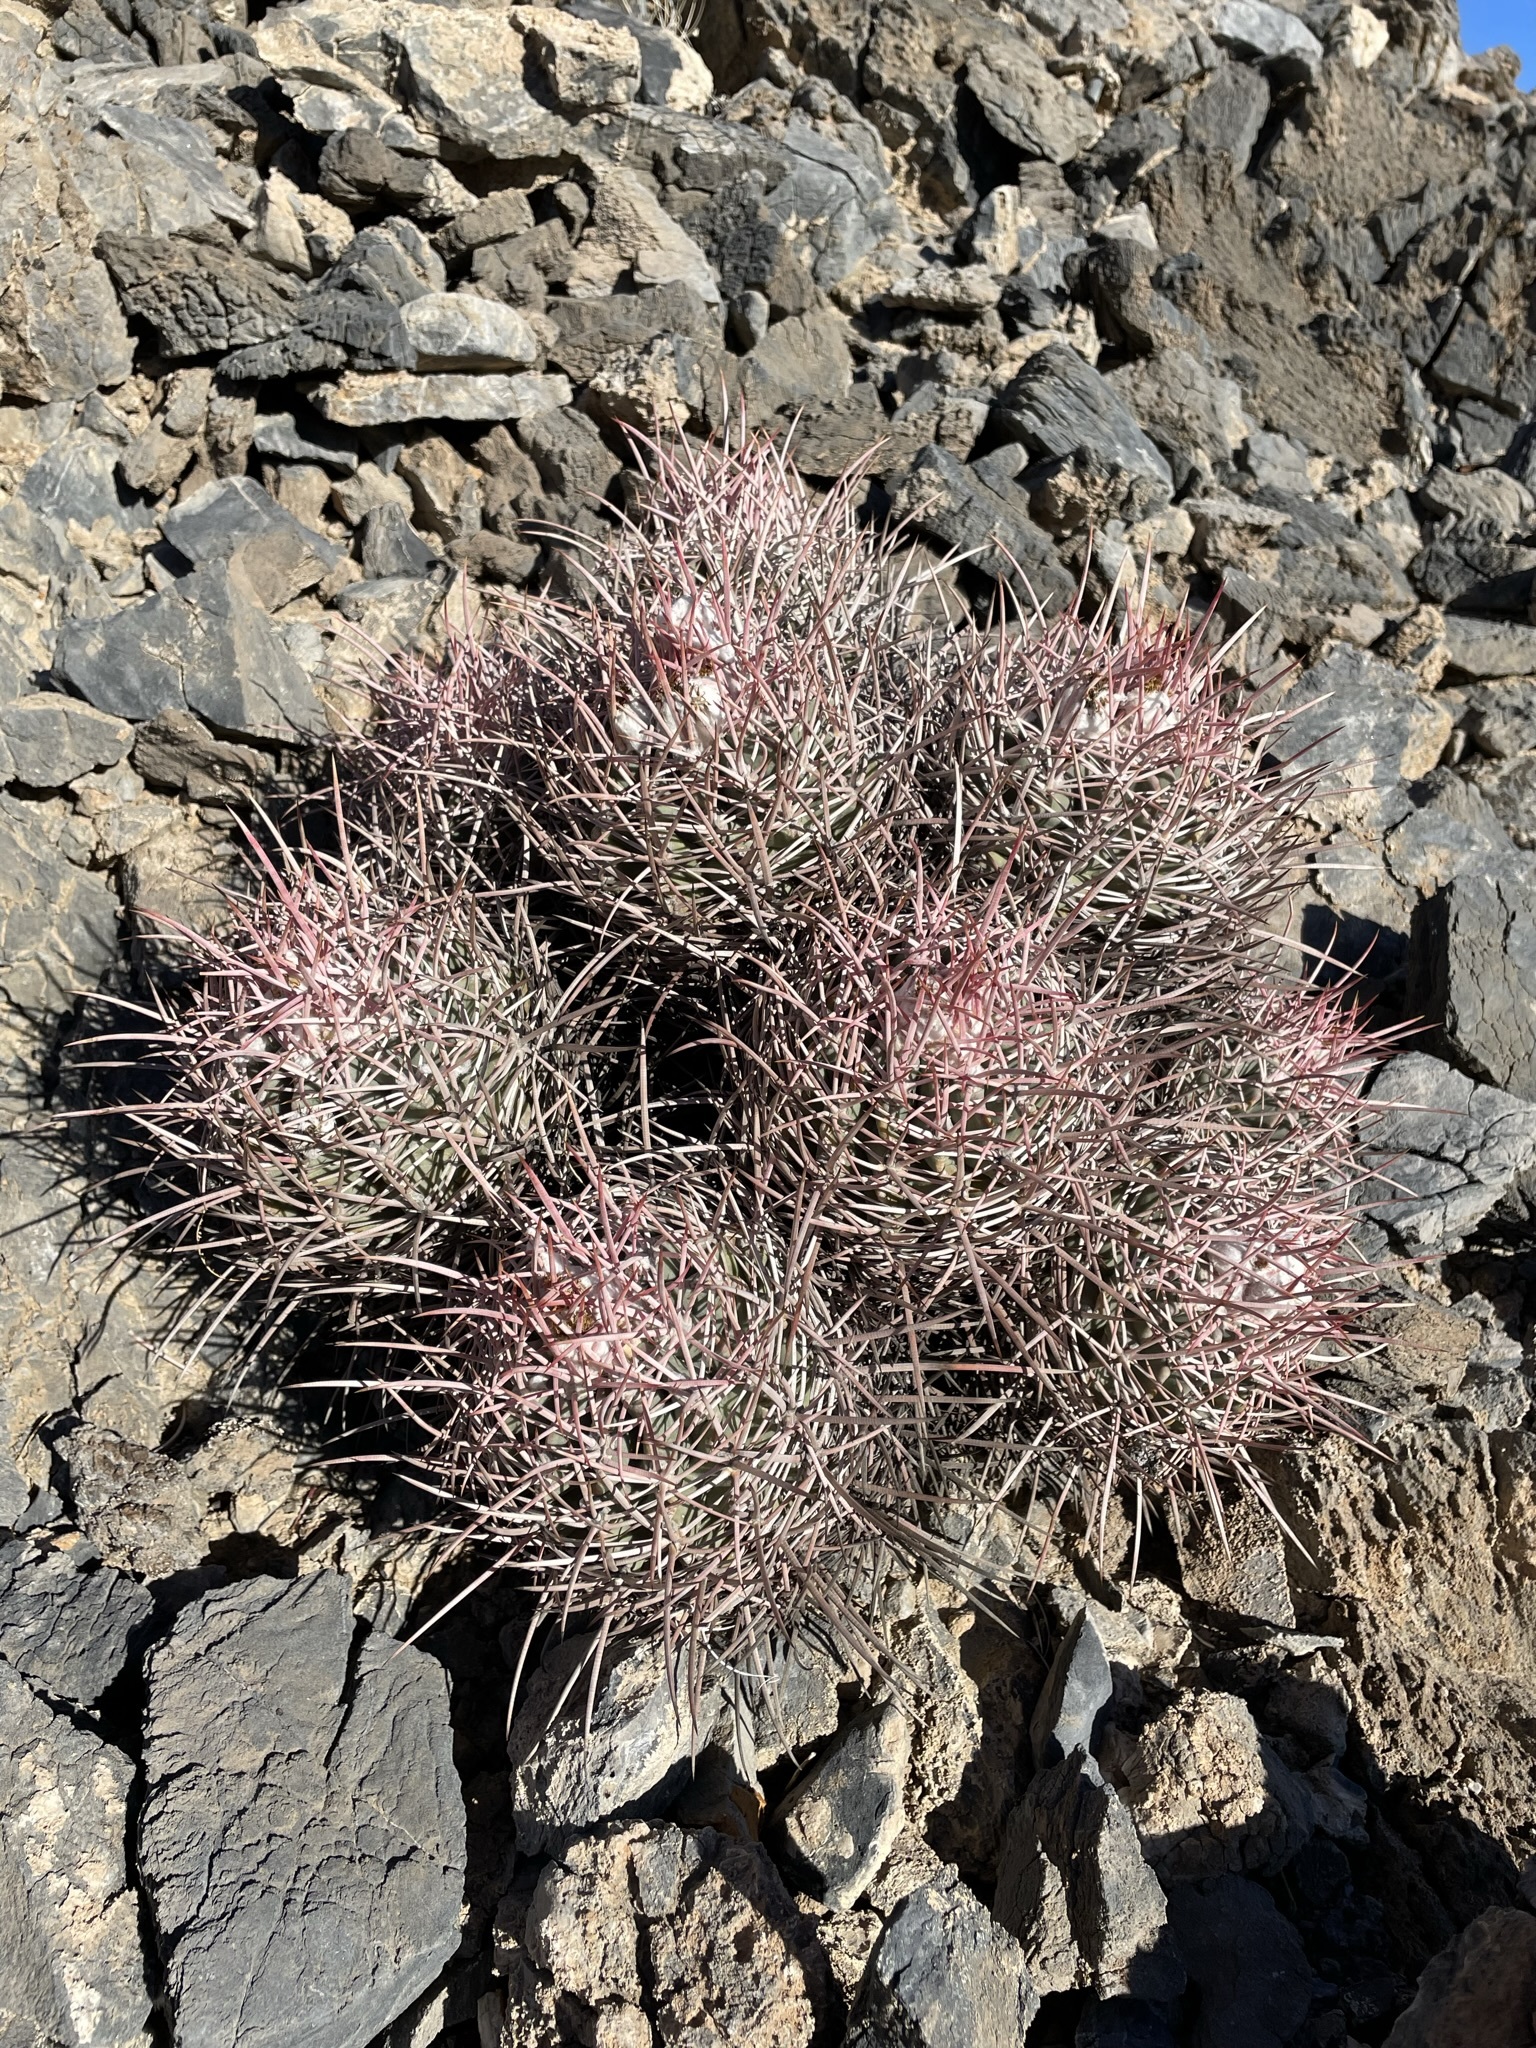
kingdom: Plantae
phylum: Tracheophyta
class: Magnoliopsida
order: Caryophyllales
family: Cactaceae
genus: Echinocactus
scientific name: Echinocactus polycephalus
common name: Cottontop cactus
